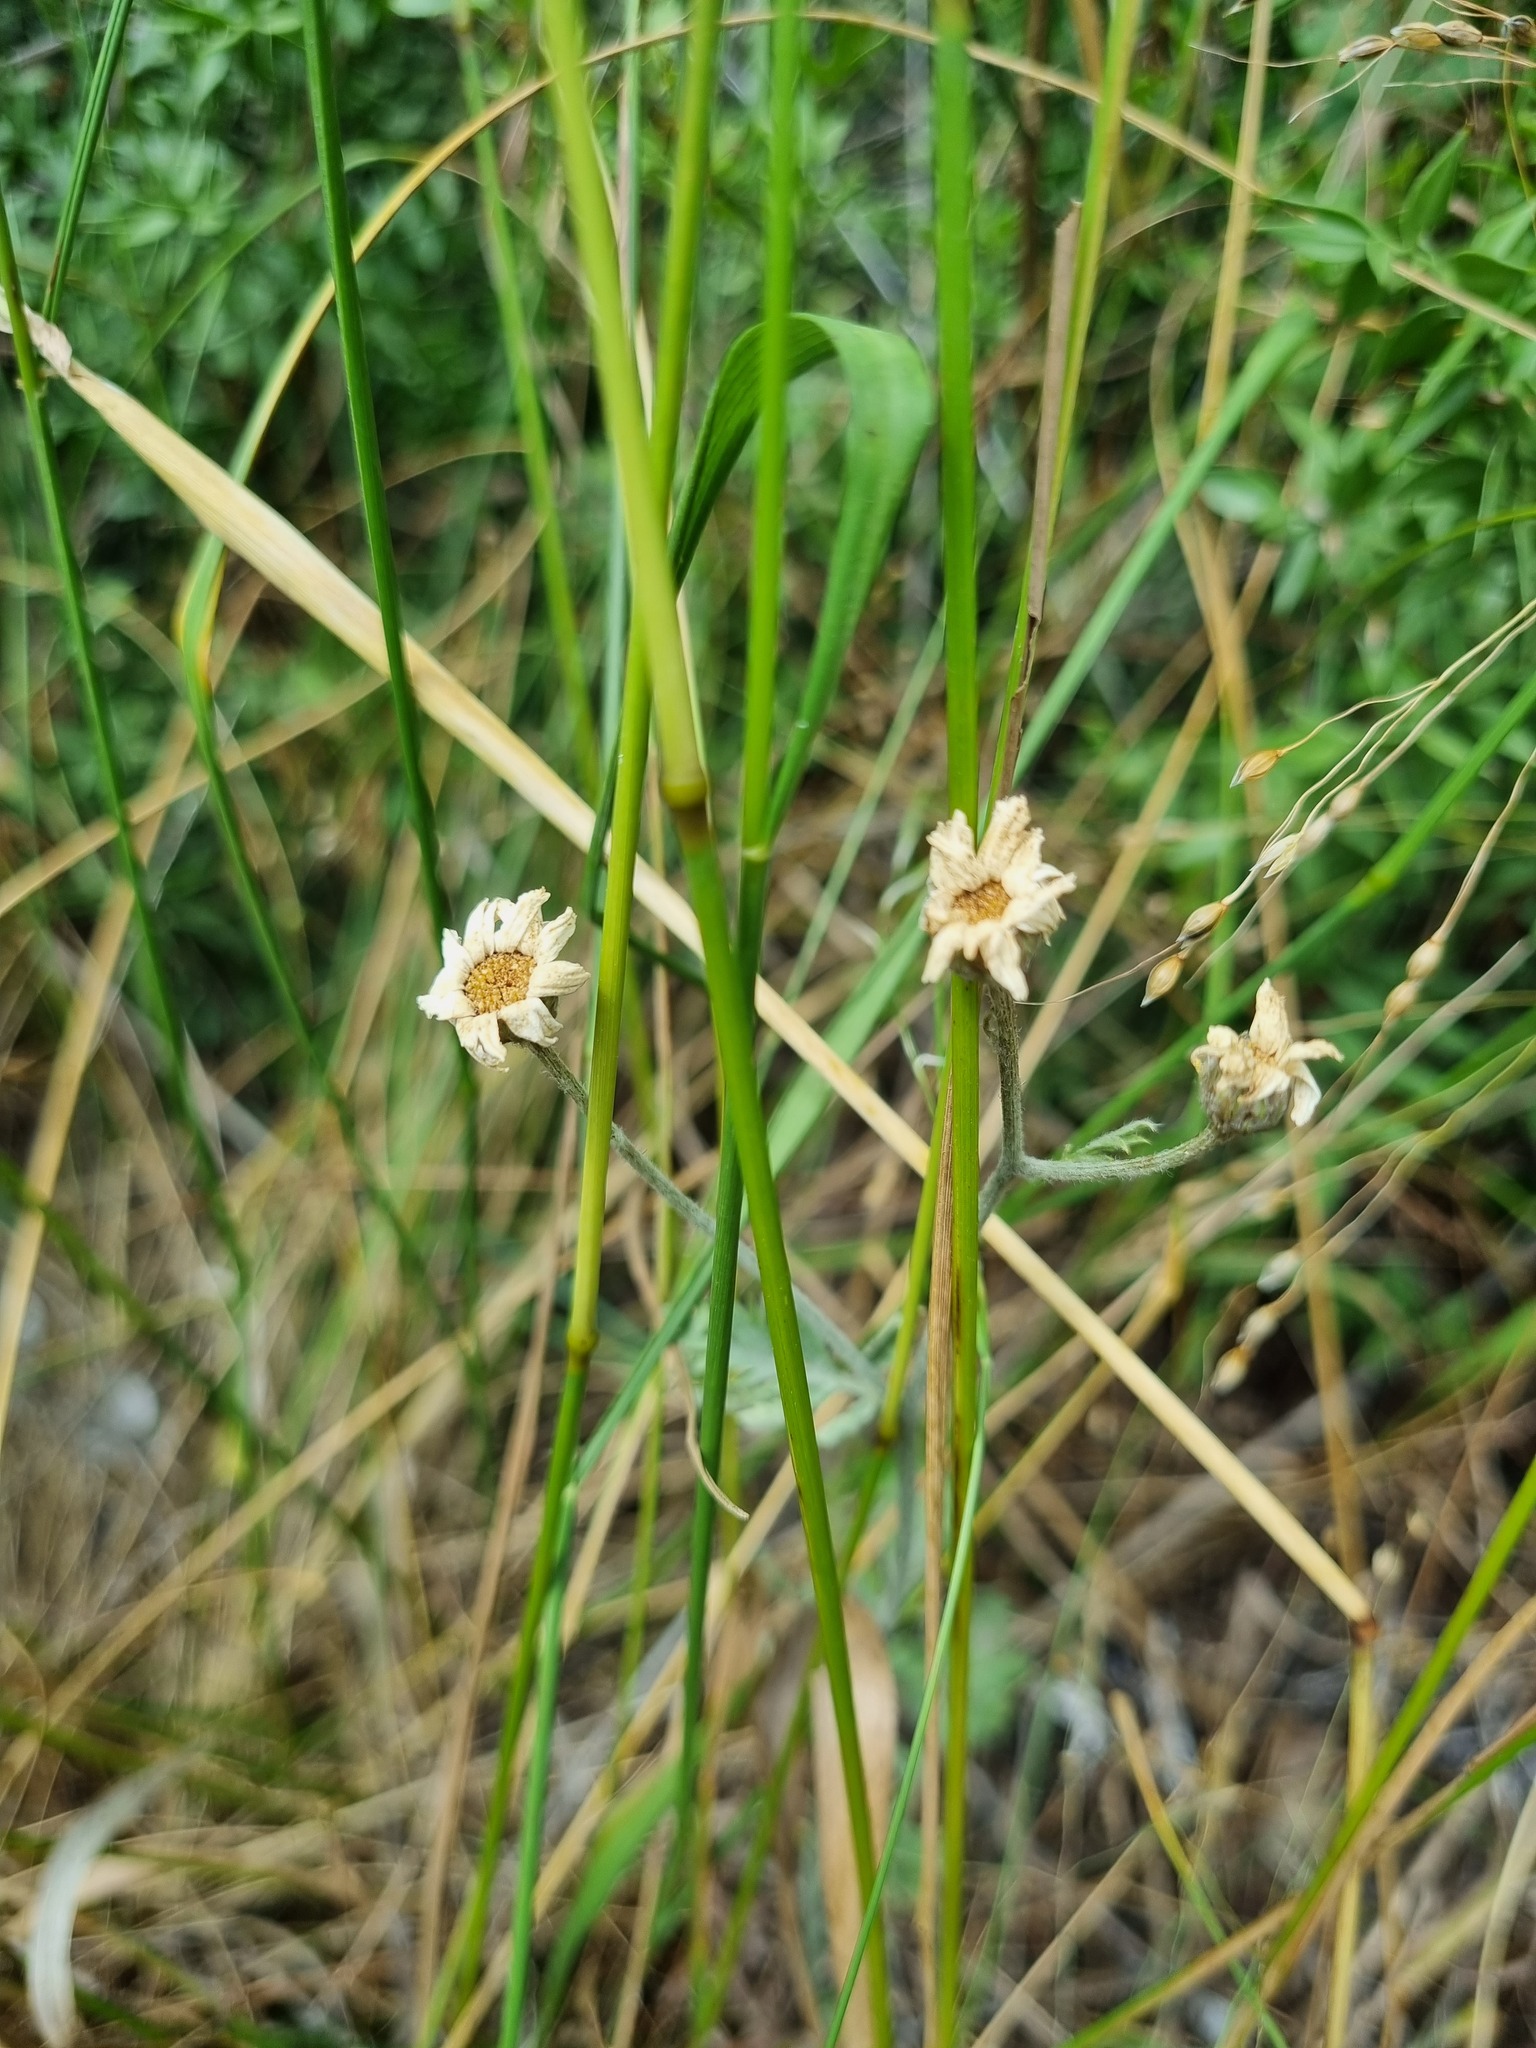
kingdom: Plantae
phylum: Tracheophyta
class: Magnoliopsida
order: Asterales
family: Asteraceae
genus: Tanacetum
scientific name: Tanacetum poteriifolium
